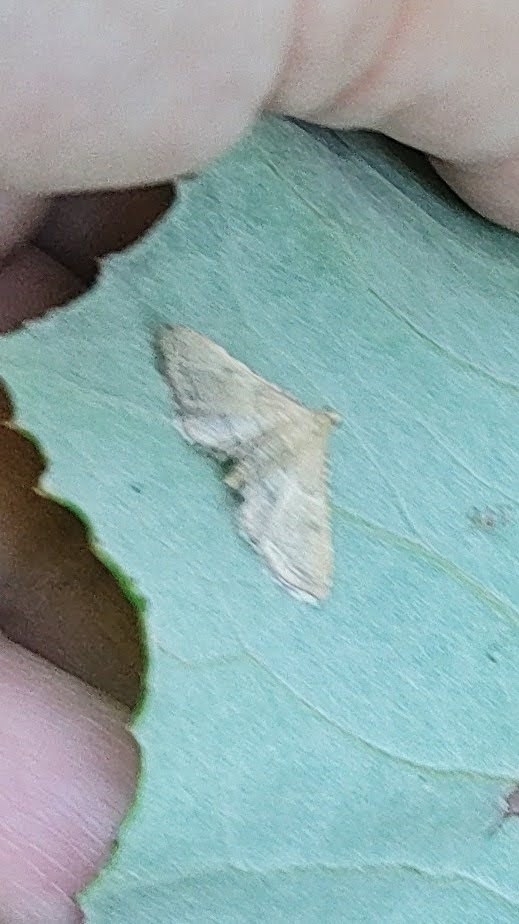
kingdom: Animalia
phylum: Arthropoda
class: Insecta
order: Lepidoptera
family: Pyralidae
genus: Endotricha
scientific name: Endotricha flammealis
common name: Rosy tabby
